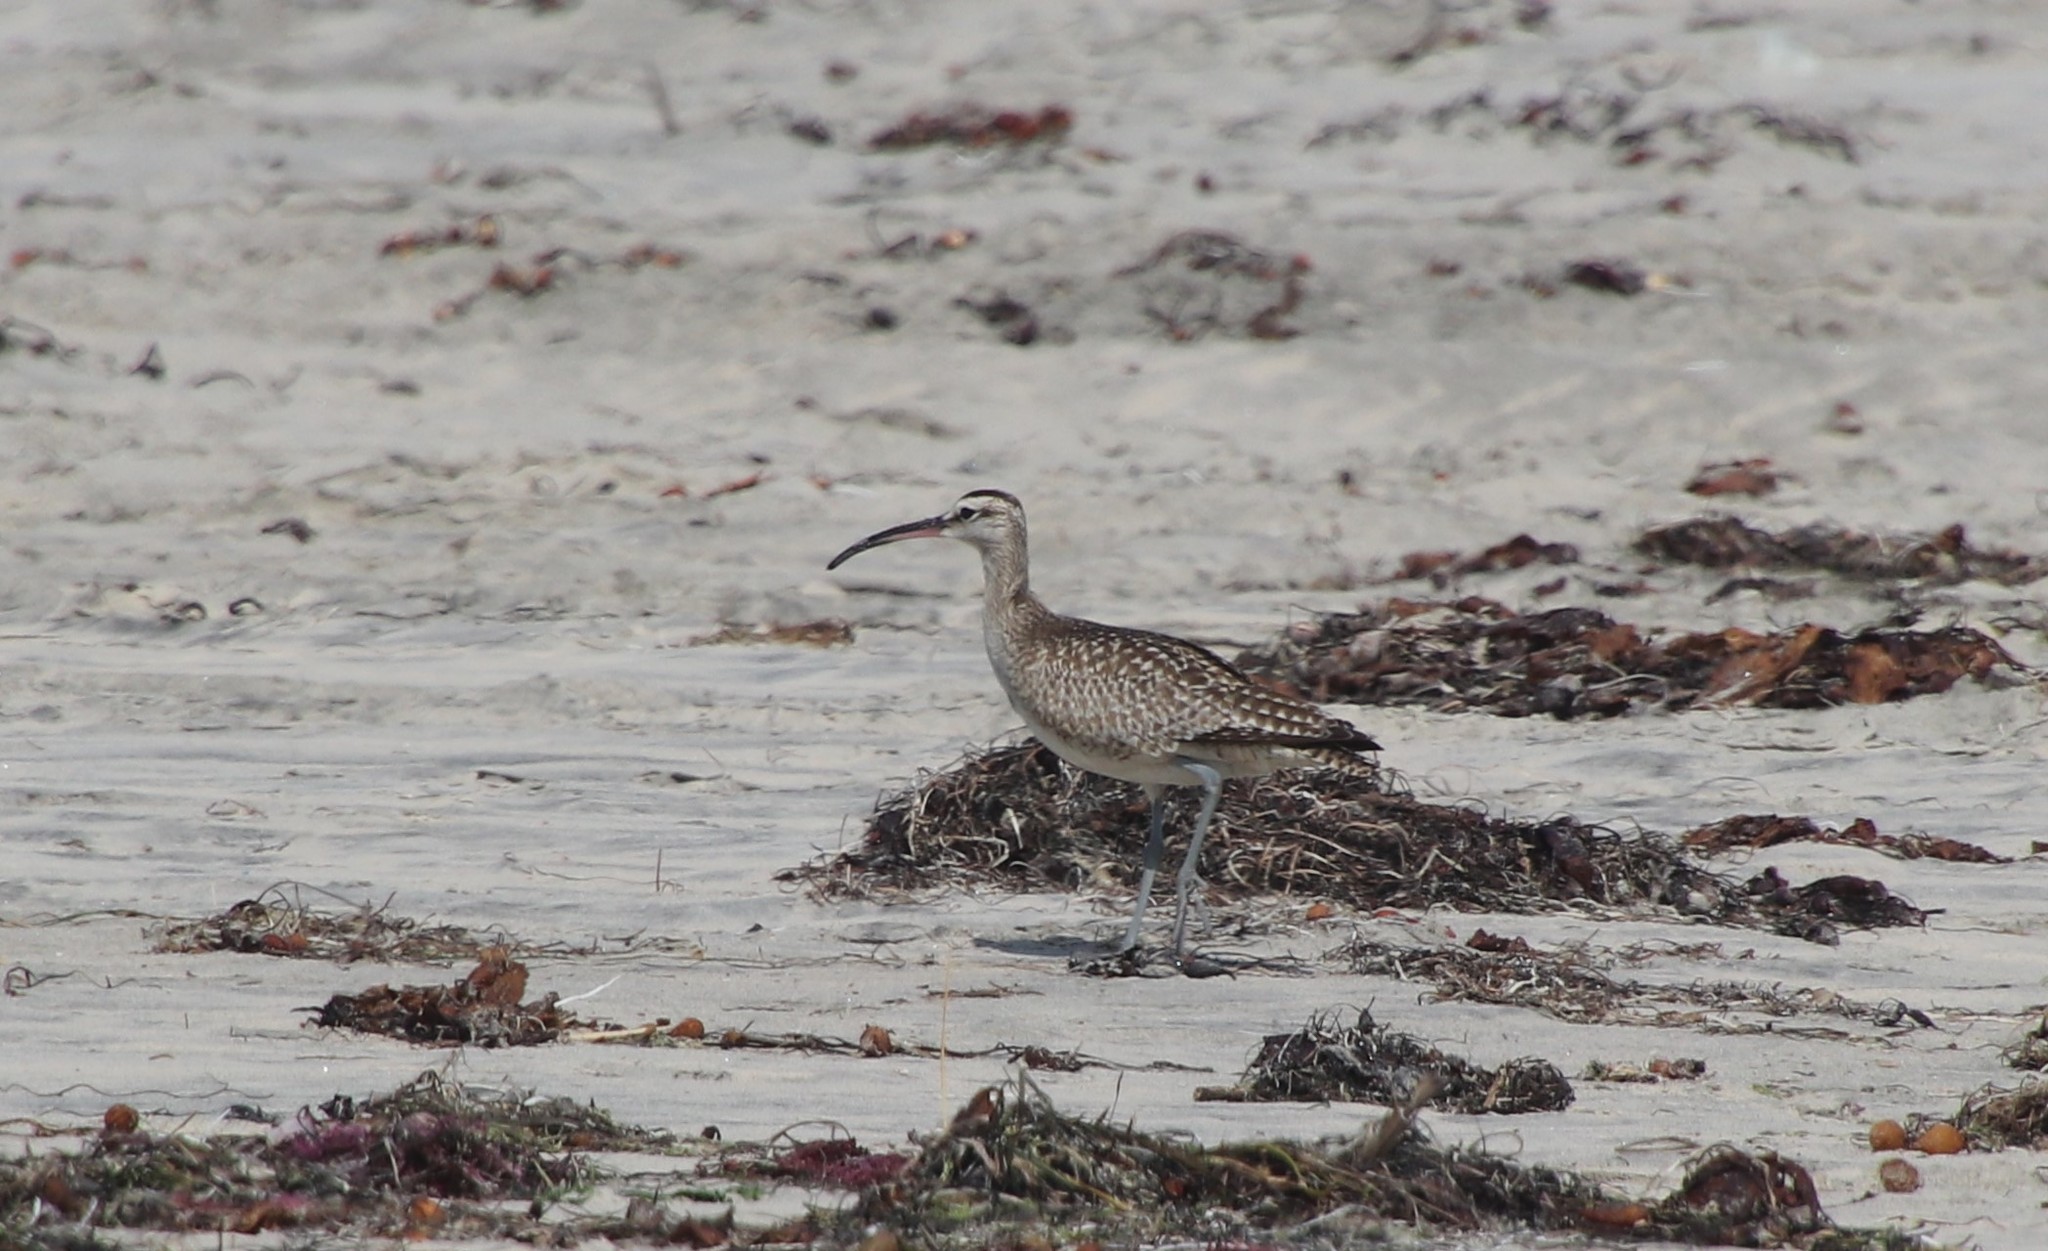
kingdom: Animalia
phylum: Chordata
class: Aves
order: Charadriiformes
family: Scolopacidae
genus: Numenius
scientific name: Numenius phaeopus
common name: Whimbrel
